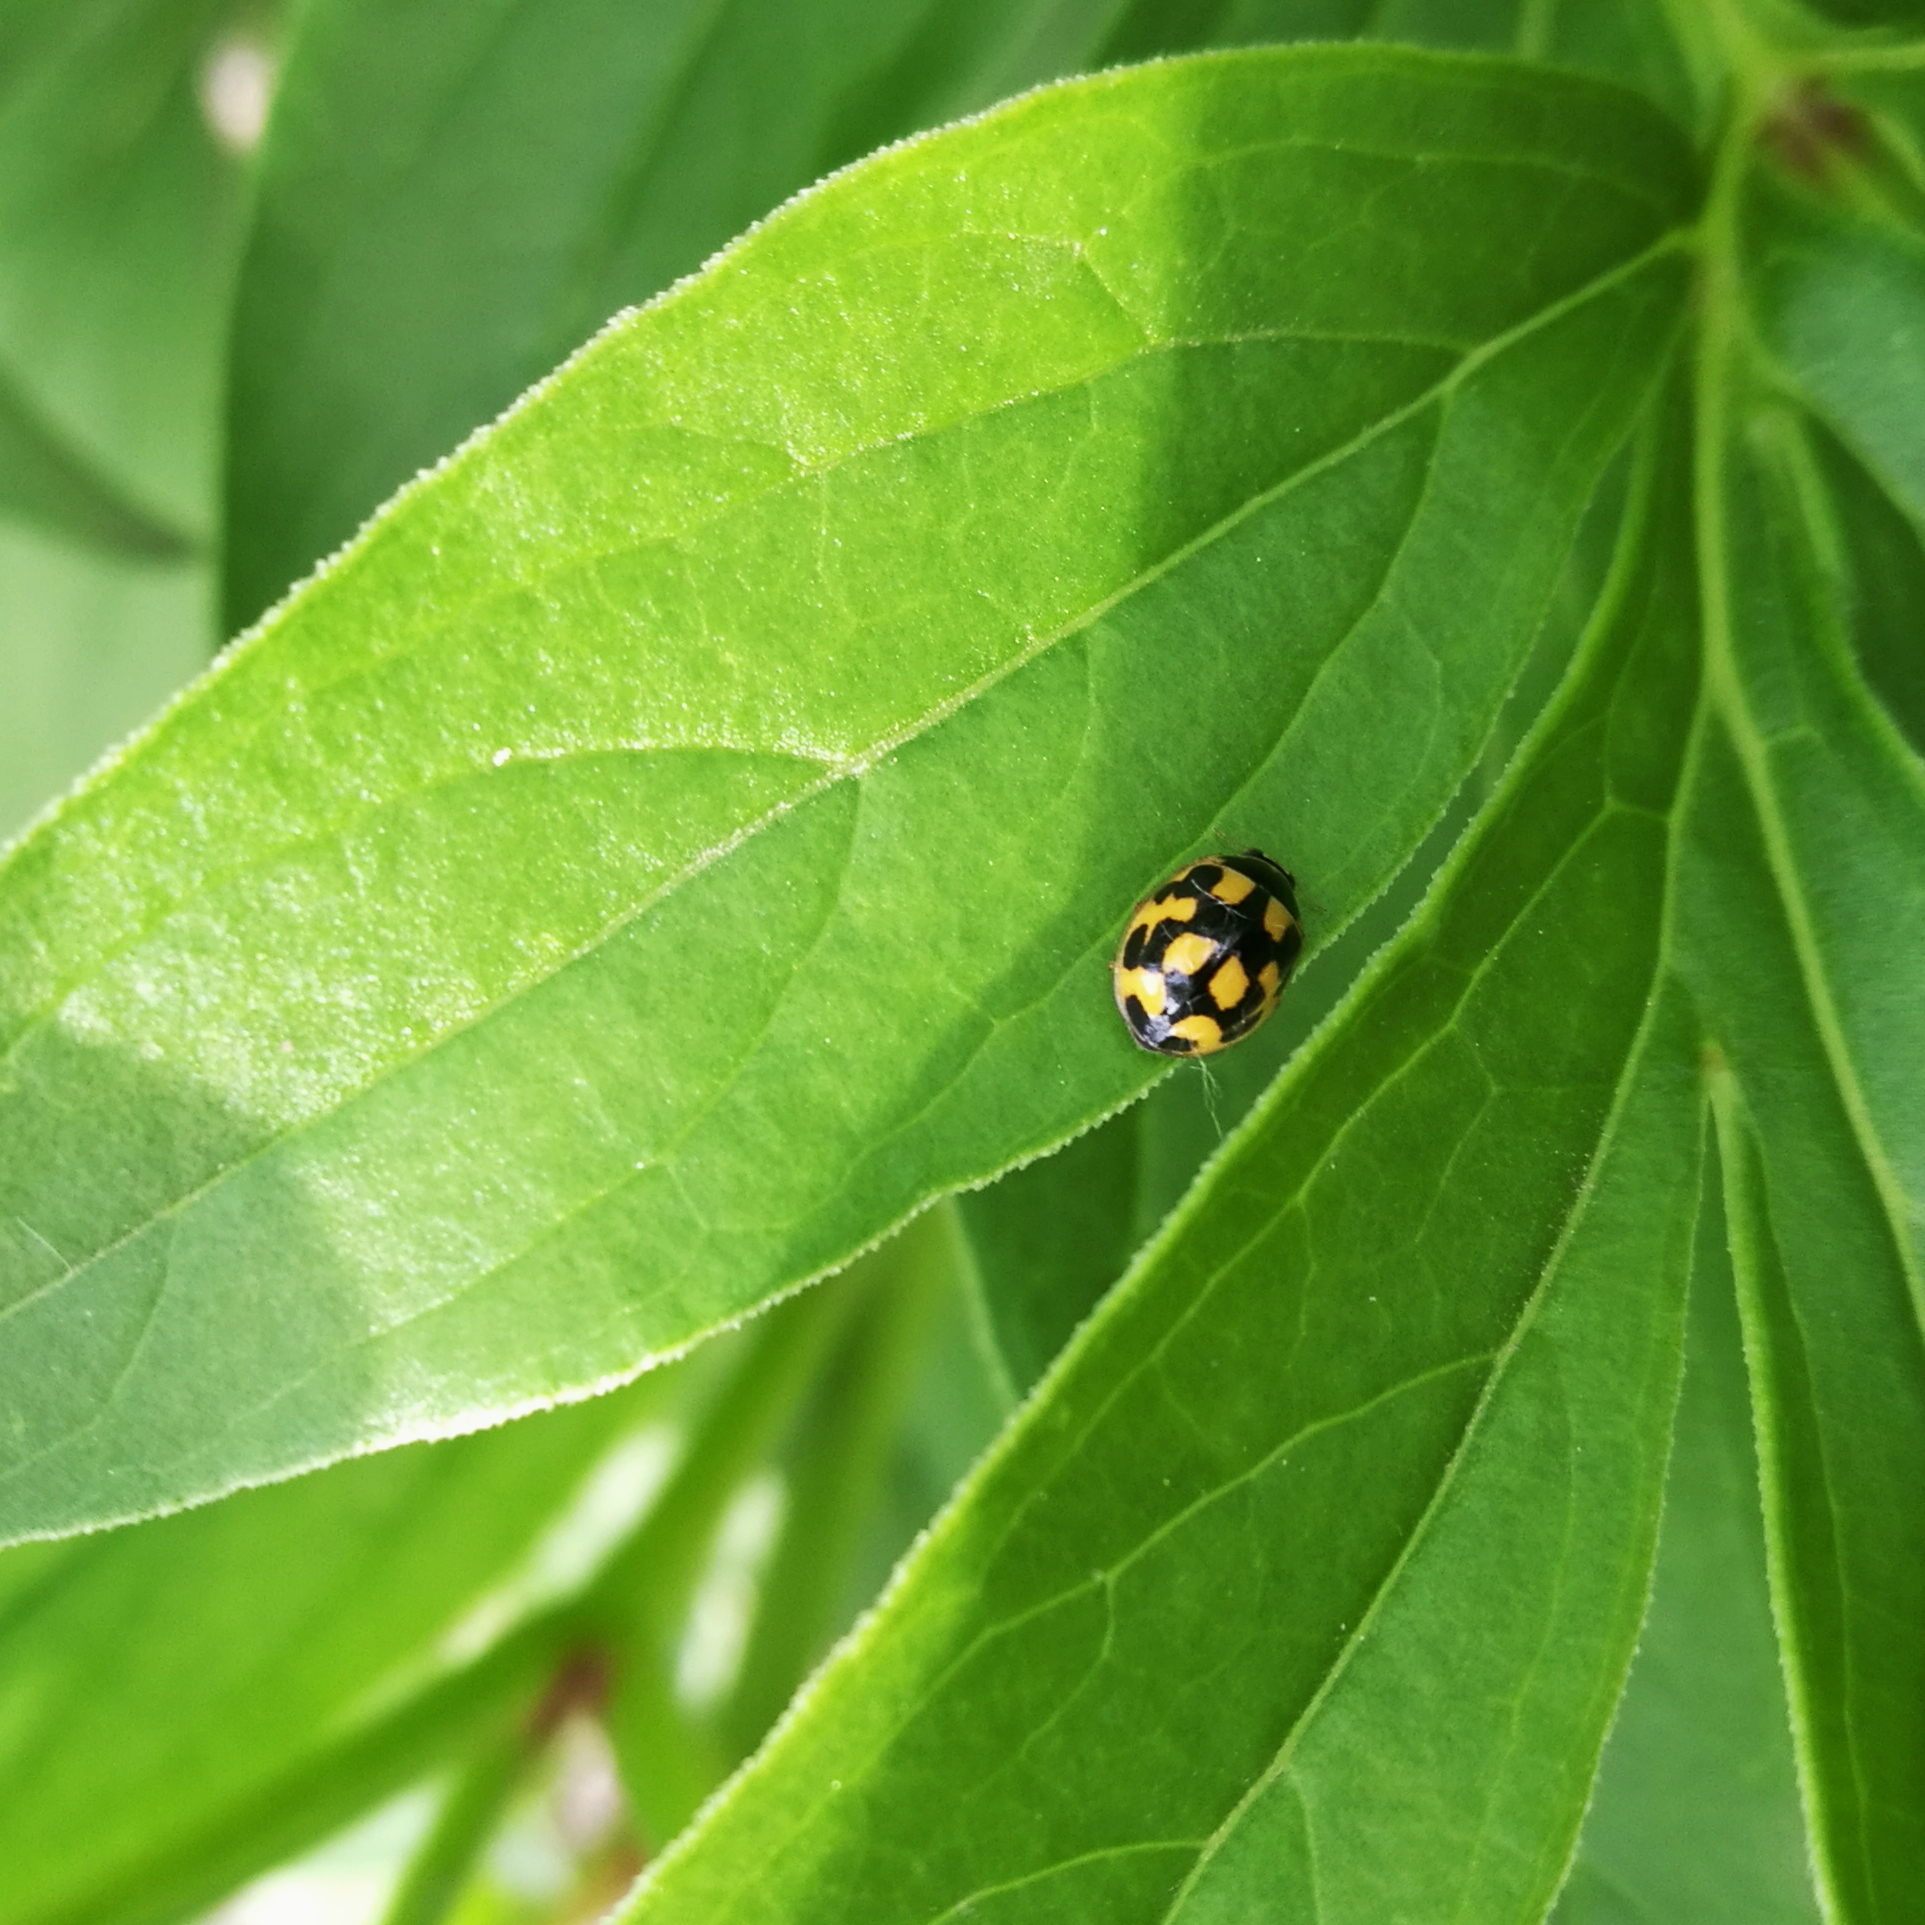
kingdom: Animalia
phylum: Arthropoda
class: Insecta
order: Coleoptera
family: Coccinellidae
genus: Propylaea
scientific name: Propylaea quatuordecimpunctata
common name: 14-spotted ladybird beetle
